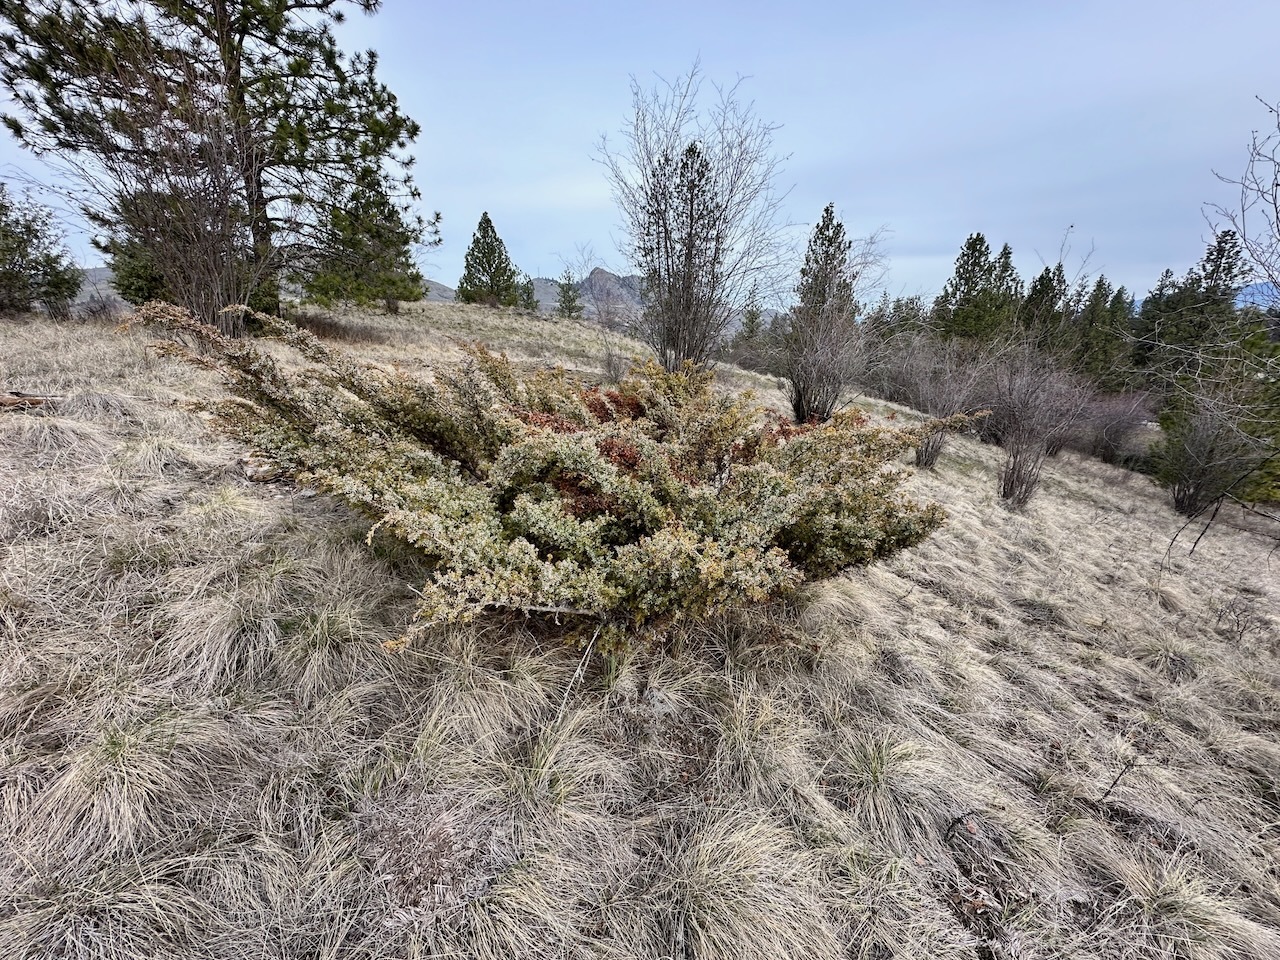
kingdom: Plantae
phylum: Tracheophyta
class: Pinopsida
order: Pinales
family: Cupressaceae
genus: Juniperus
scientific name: Juniperus communis
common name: Common juniper
